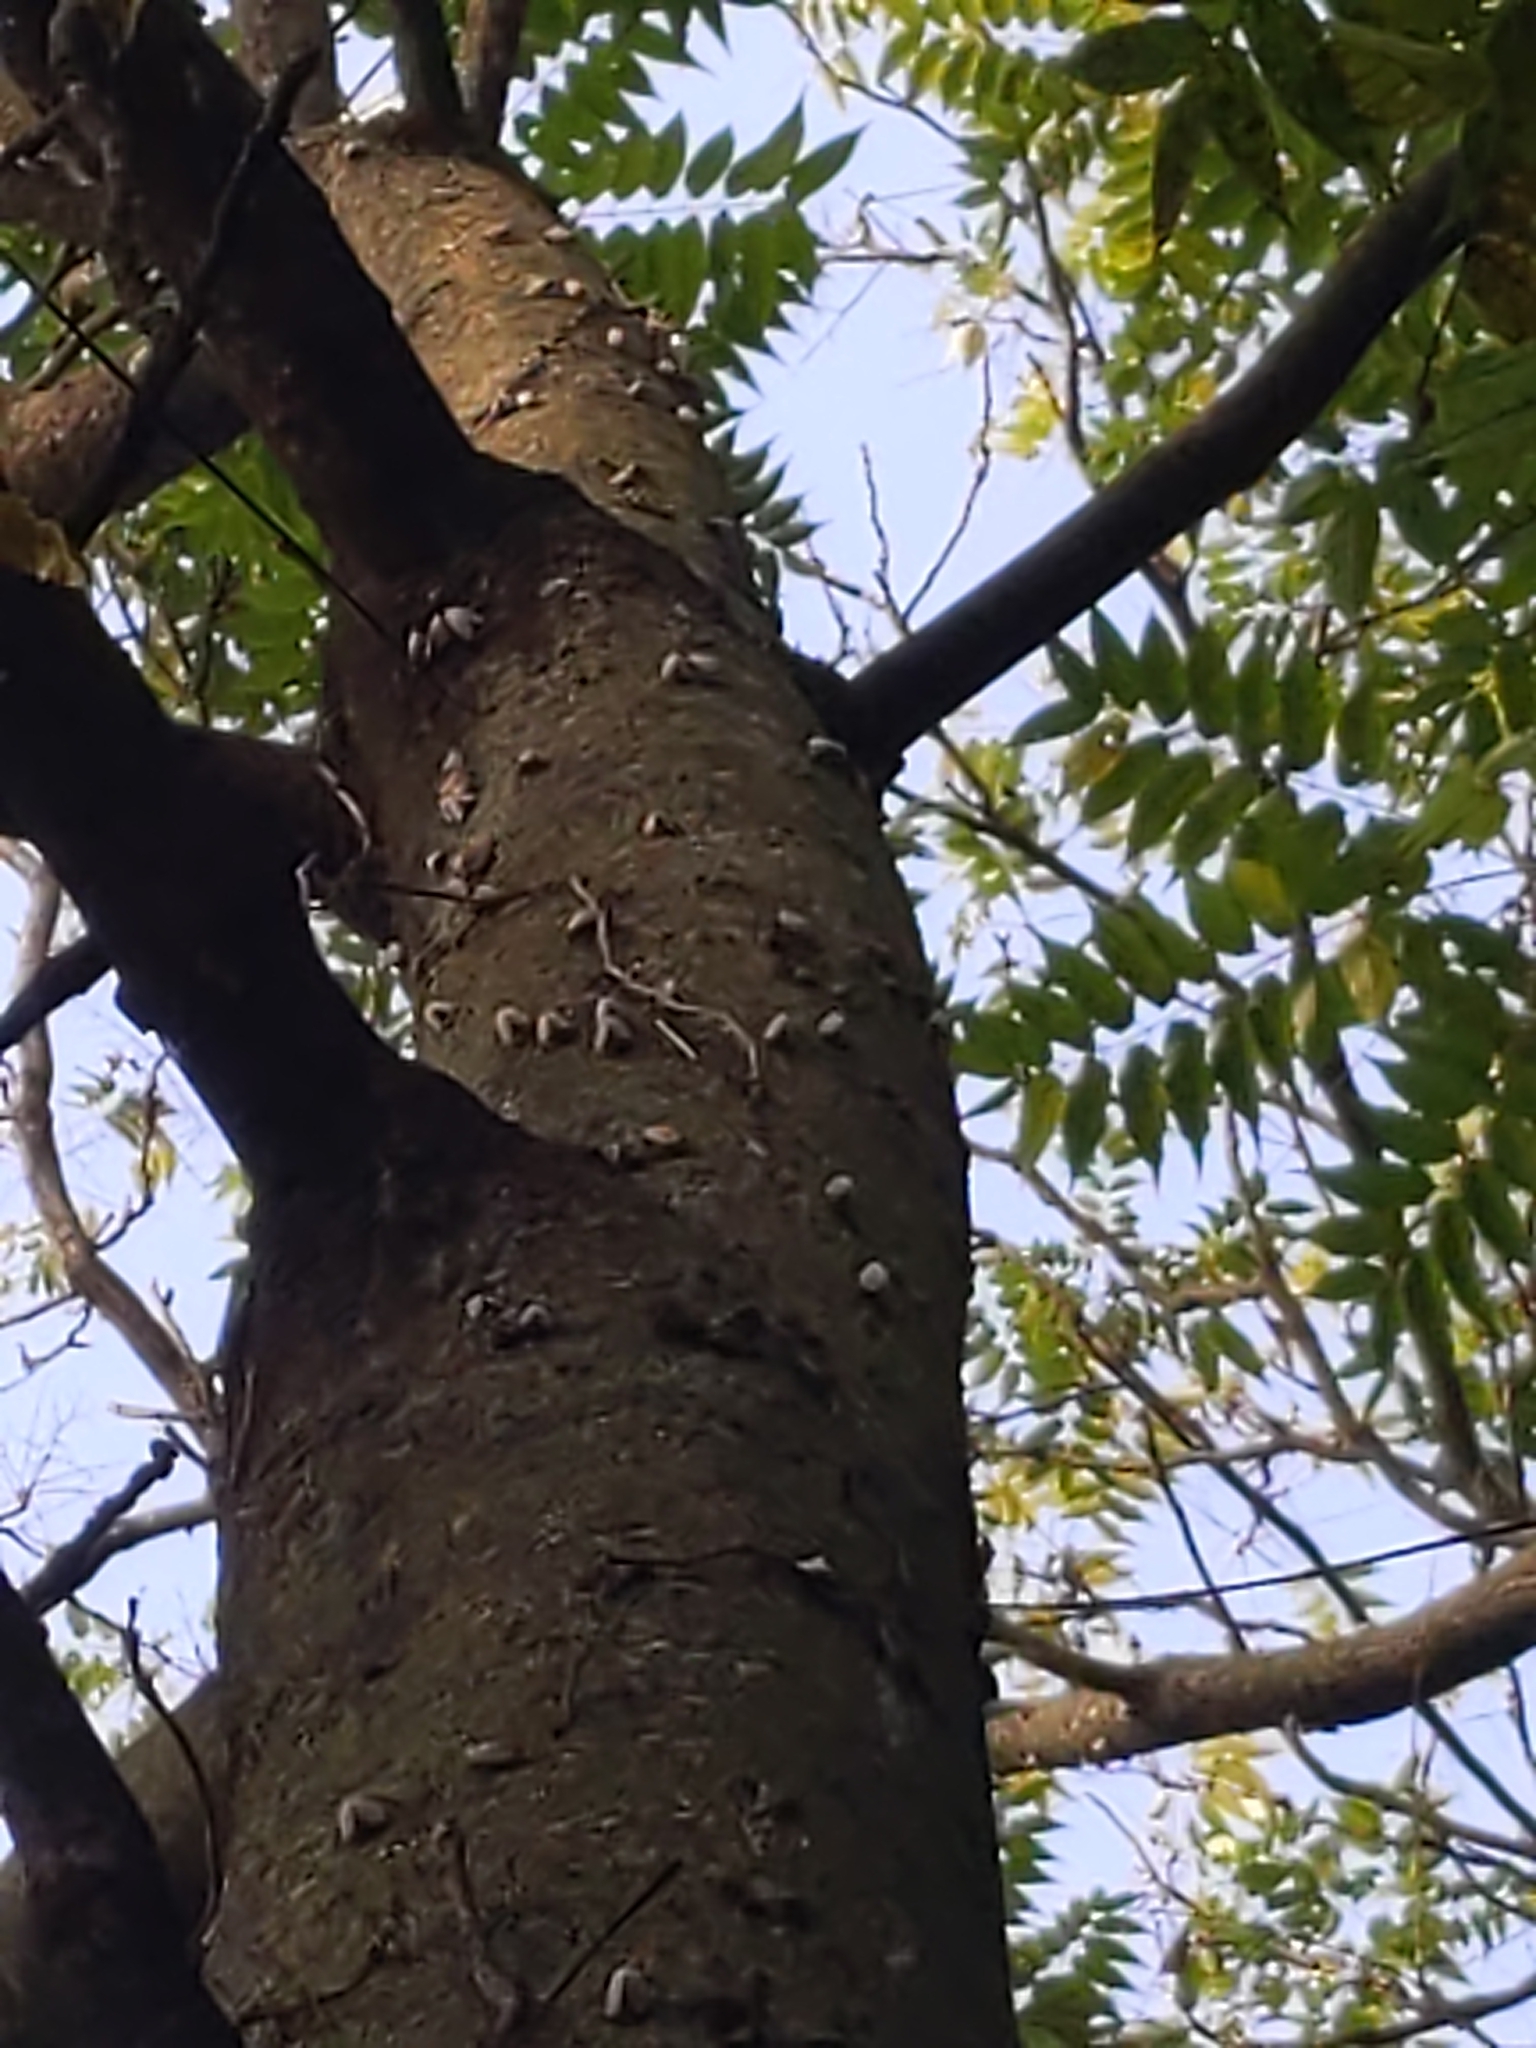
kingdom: Animalia
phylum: Arthropoda
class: Insecta
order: Hemiptera
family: Fulgoridae
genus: Lycorma
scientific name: Lycorma delicatula
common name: Spotted lanternfly
